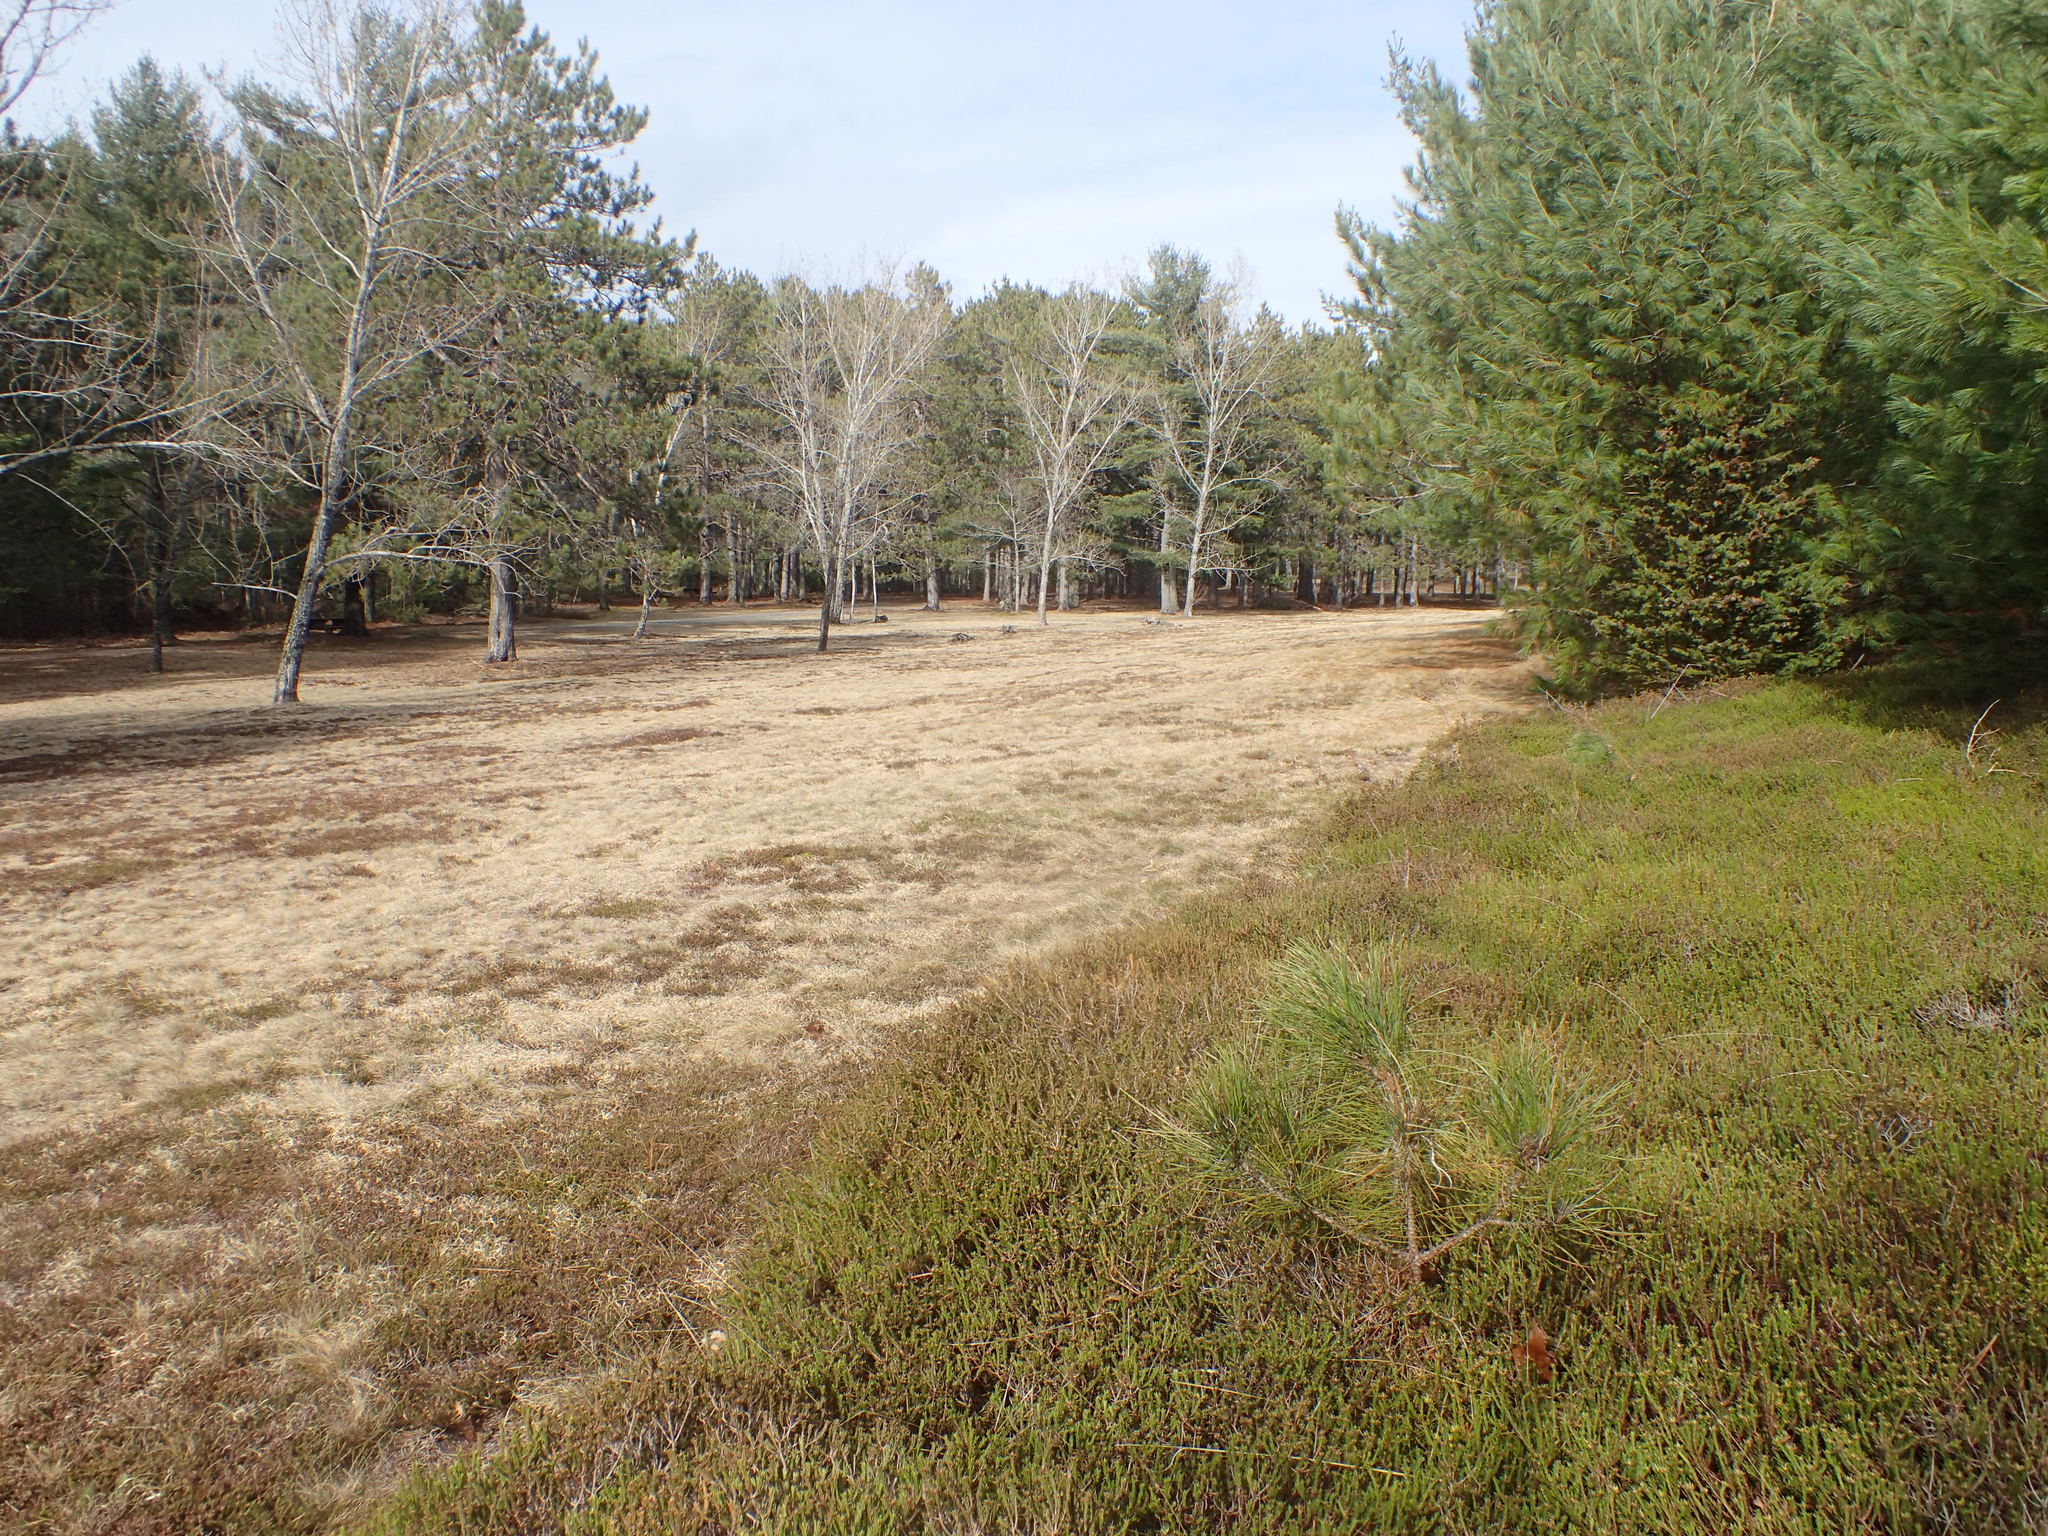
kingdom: Plantae
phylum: Tracheophyta
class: Magnoliopsida
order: Ericales
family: Ericaceae
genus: Corema
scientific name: Corema conradii
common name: Broom-crowberry
